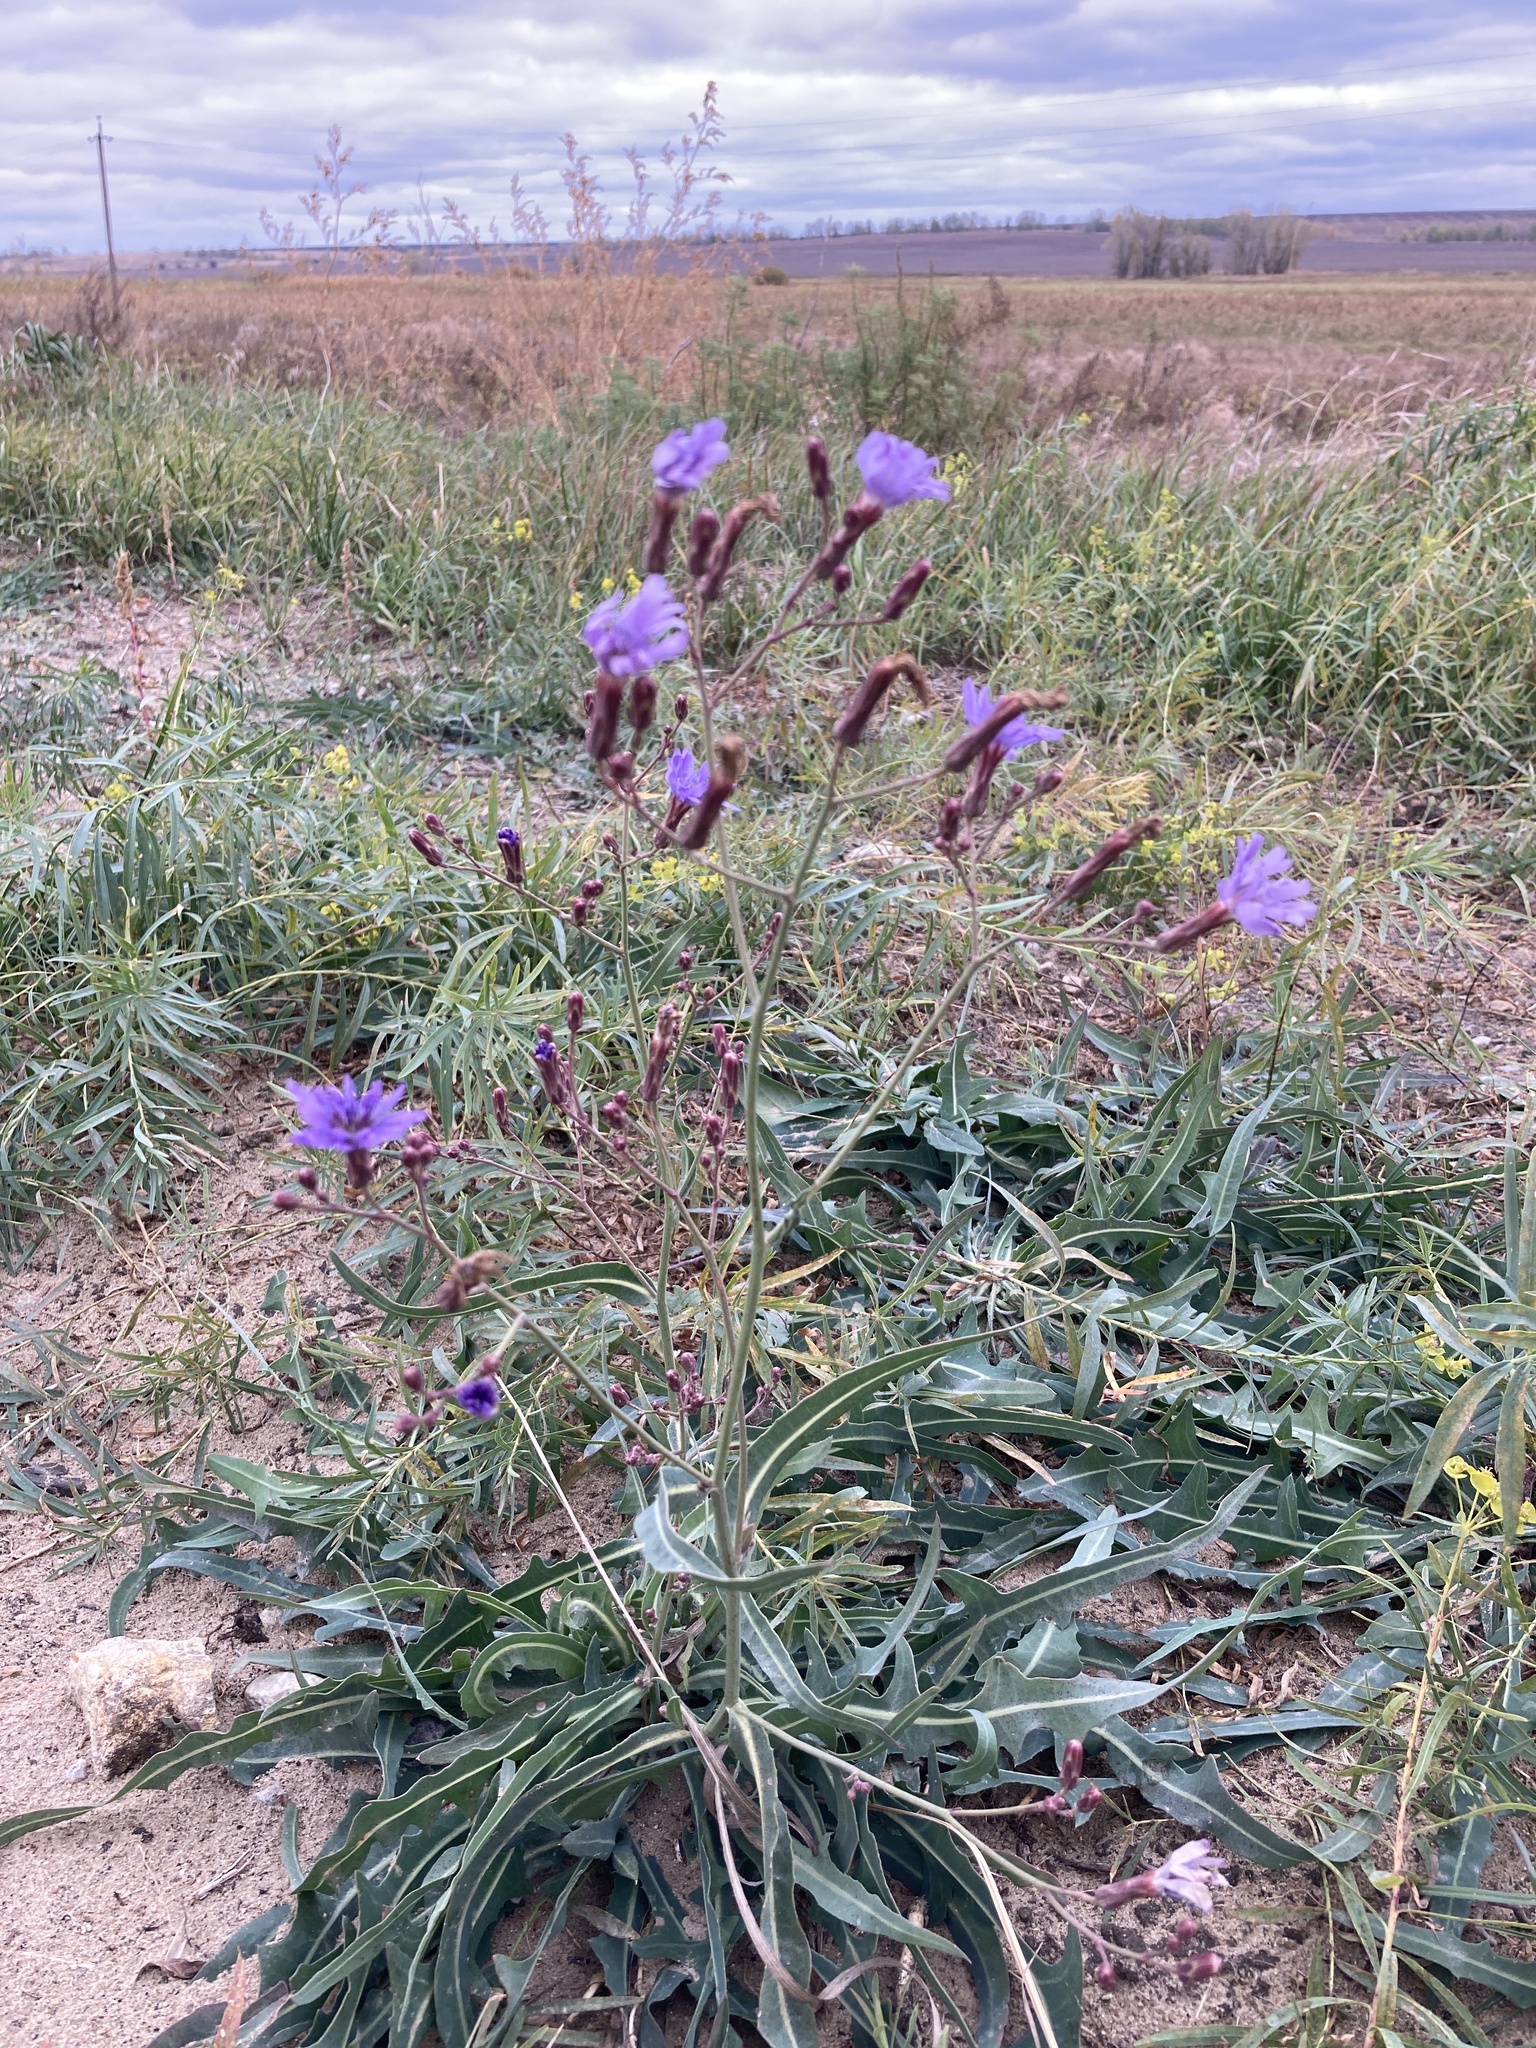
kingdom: Plantae
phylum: Tracheophyta
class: Magnoliopsida
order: Asterales
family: Asteraceae
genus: Lactuca
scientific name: Lactuca tatarica
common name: Blue lettuce
